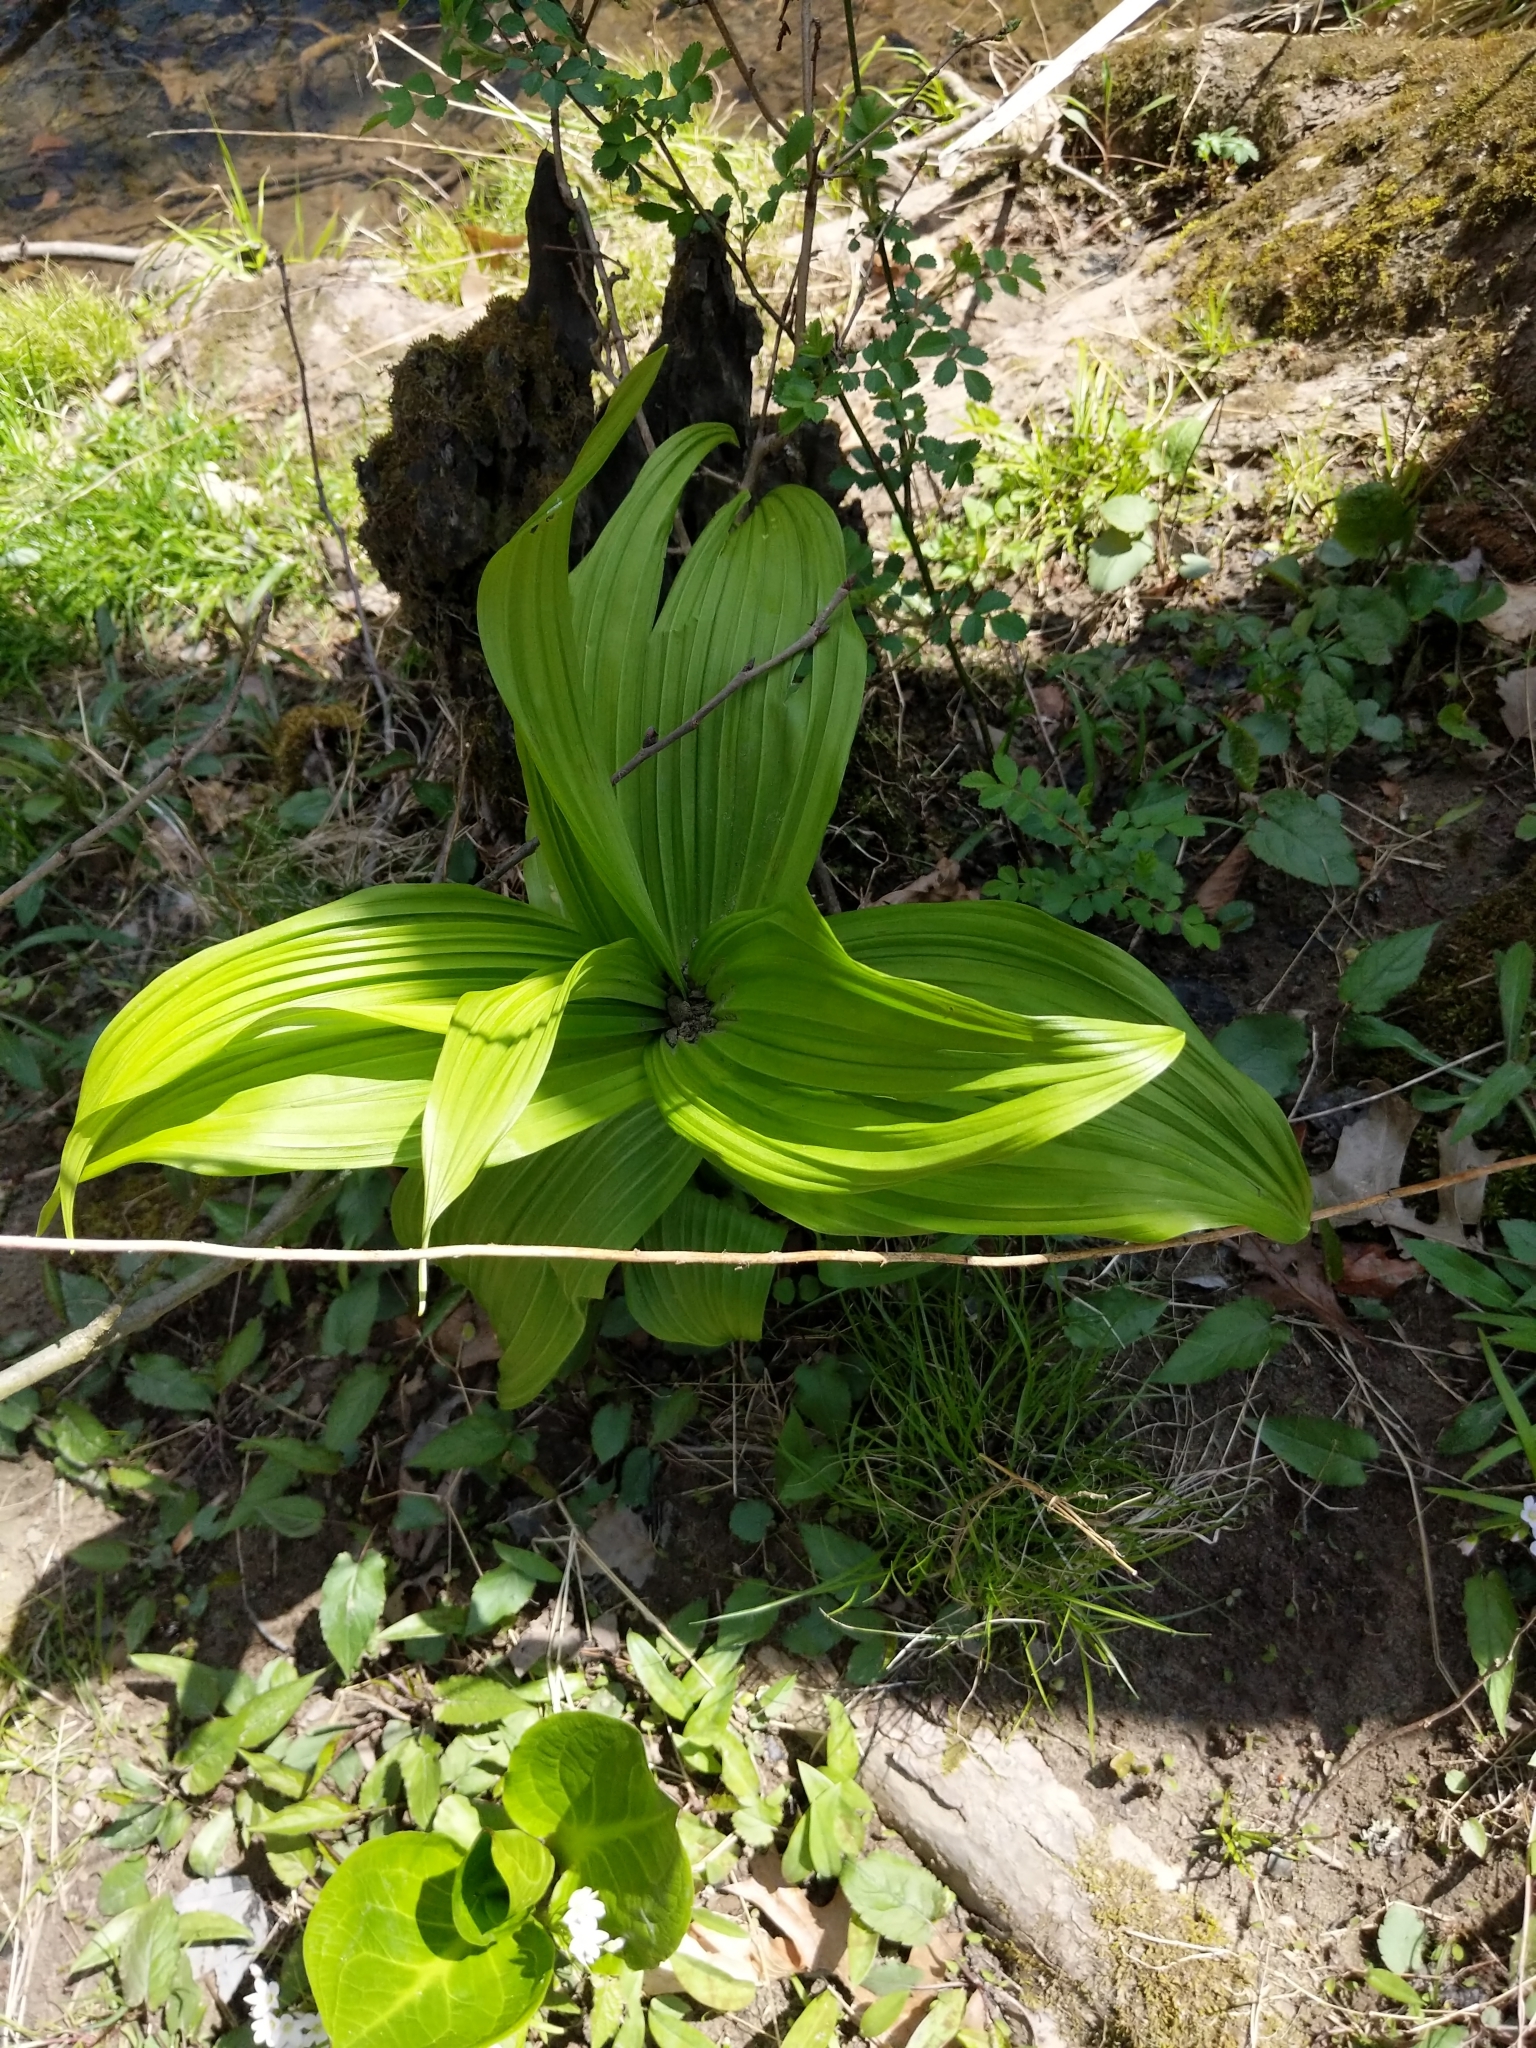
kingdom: Plantae
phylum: Tracheophyta
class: Liliopsida
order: Liliales
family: Melanthiaceae
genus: Veratrum
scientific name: Veratrum viride
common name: American false hellebore
